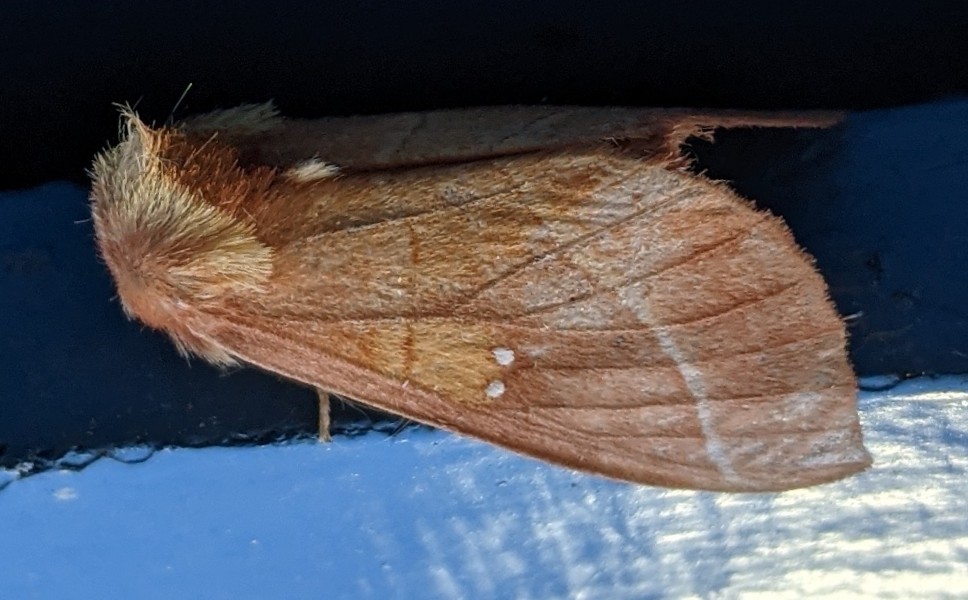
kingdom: Animalia
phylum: Arthropoda
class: Insecta
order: Lepidoptera
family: Notodontidae
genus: Nadata
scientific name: Nadata gibbosa
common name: White-dotted prominent
